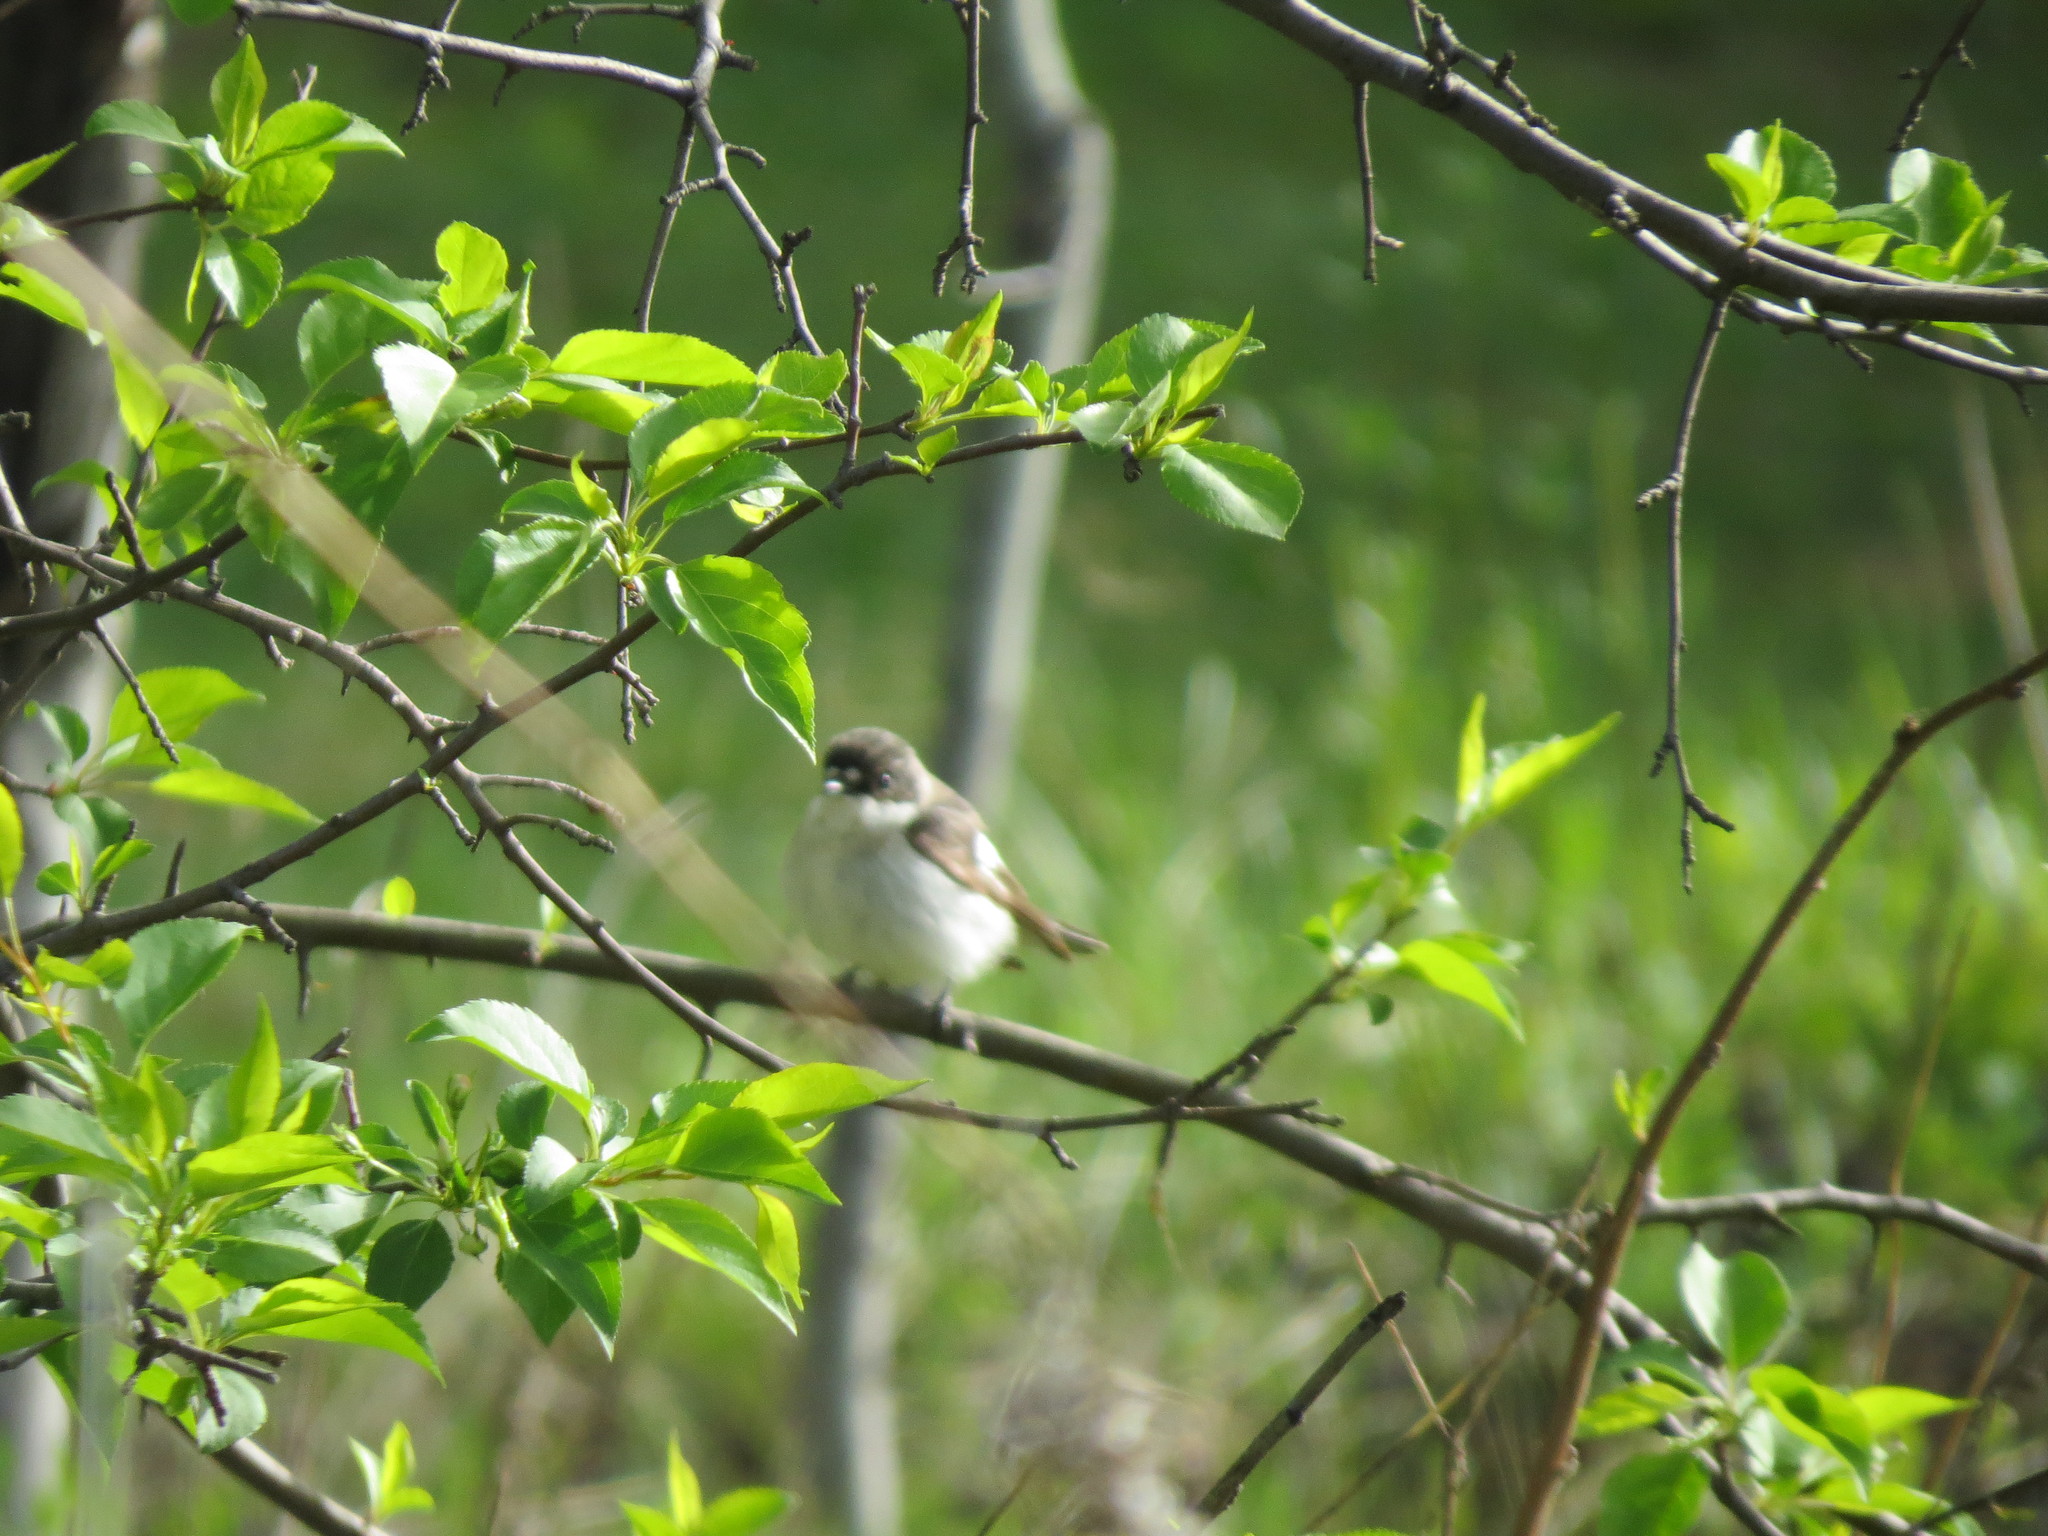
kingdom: Animalia
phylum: Chordata
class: Aves
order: Passeriformes
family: Muscicapidae
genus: Ficedula
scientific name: Ficedula hypoleuca
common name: European pied flycatcher
